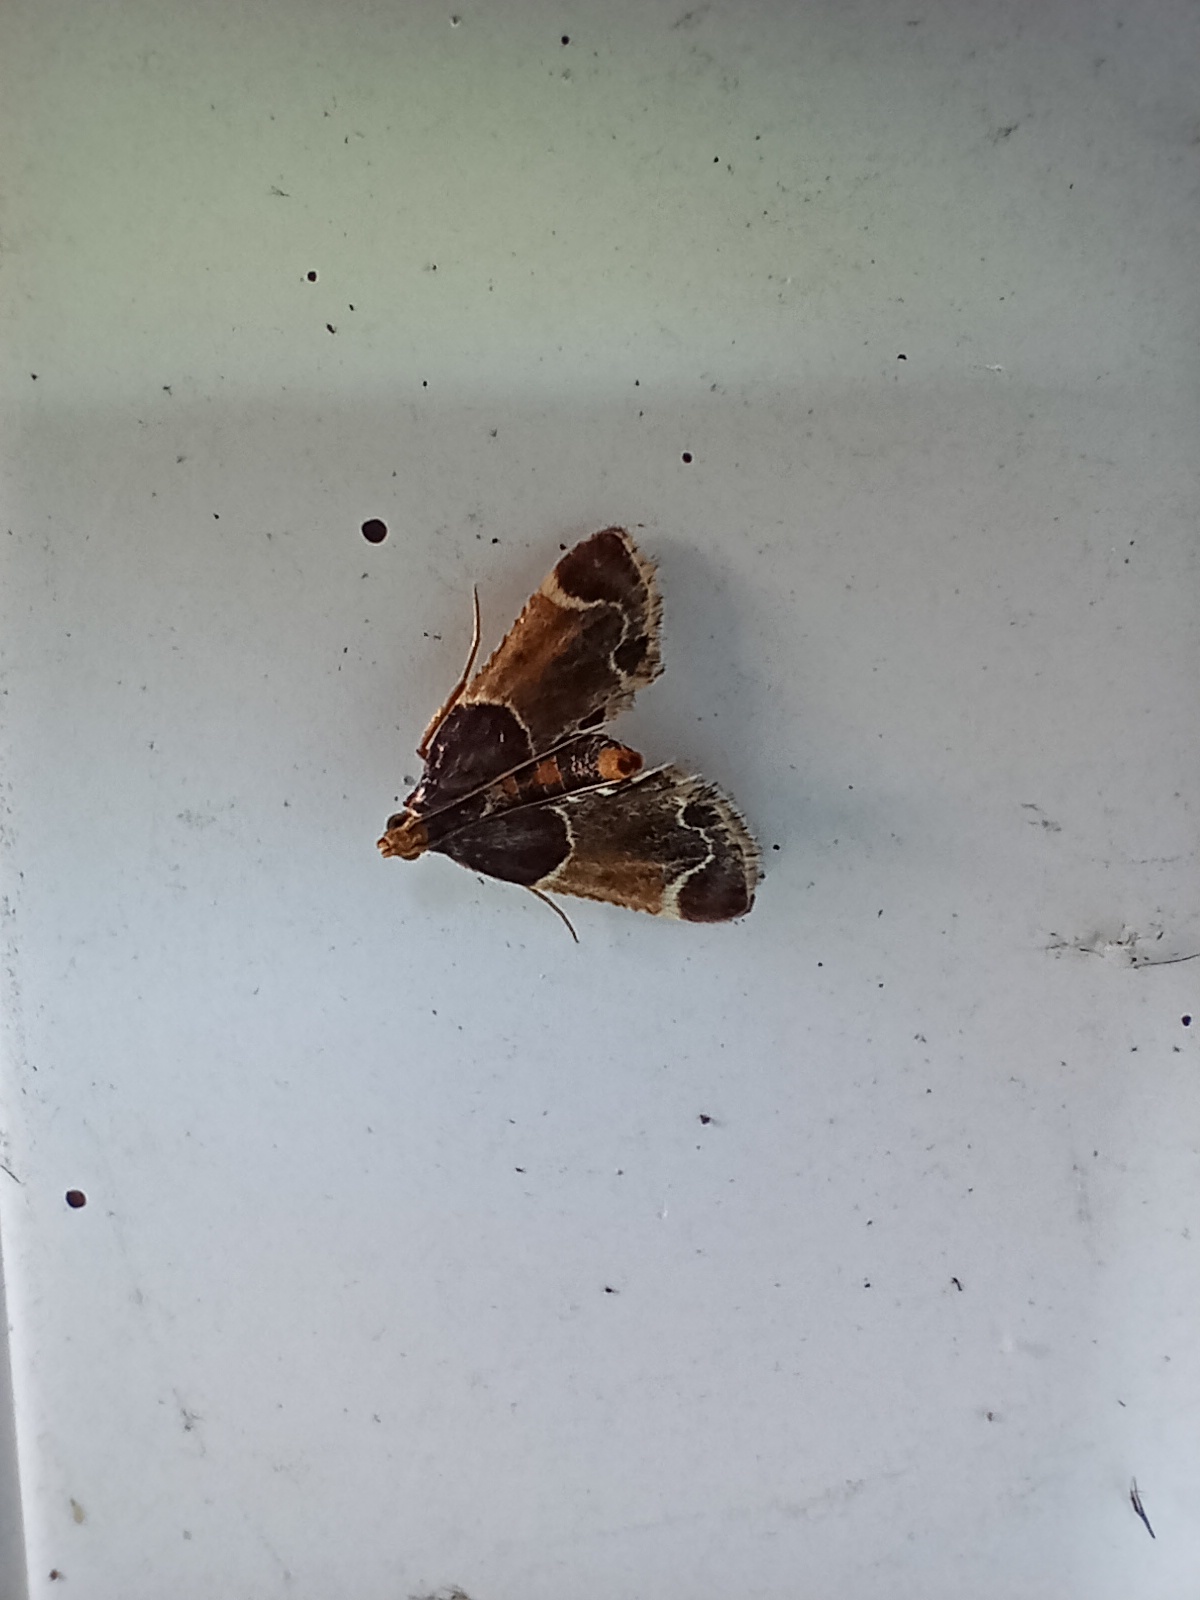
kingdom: Animalia
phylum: Arthropoda
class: Insecta
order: Lepidoptera
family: Pyralidae
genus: Pyralis
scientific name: Pyralis farinalis
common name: Meal moth
